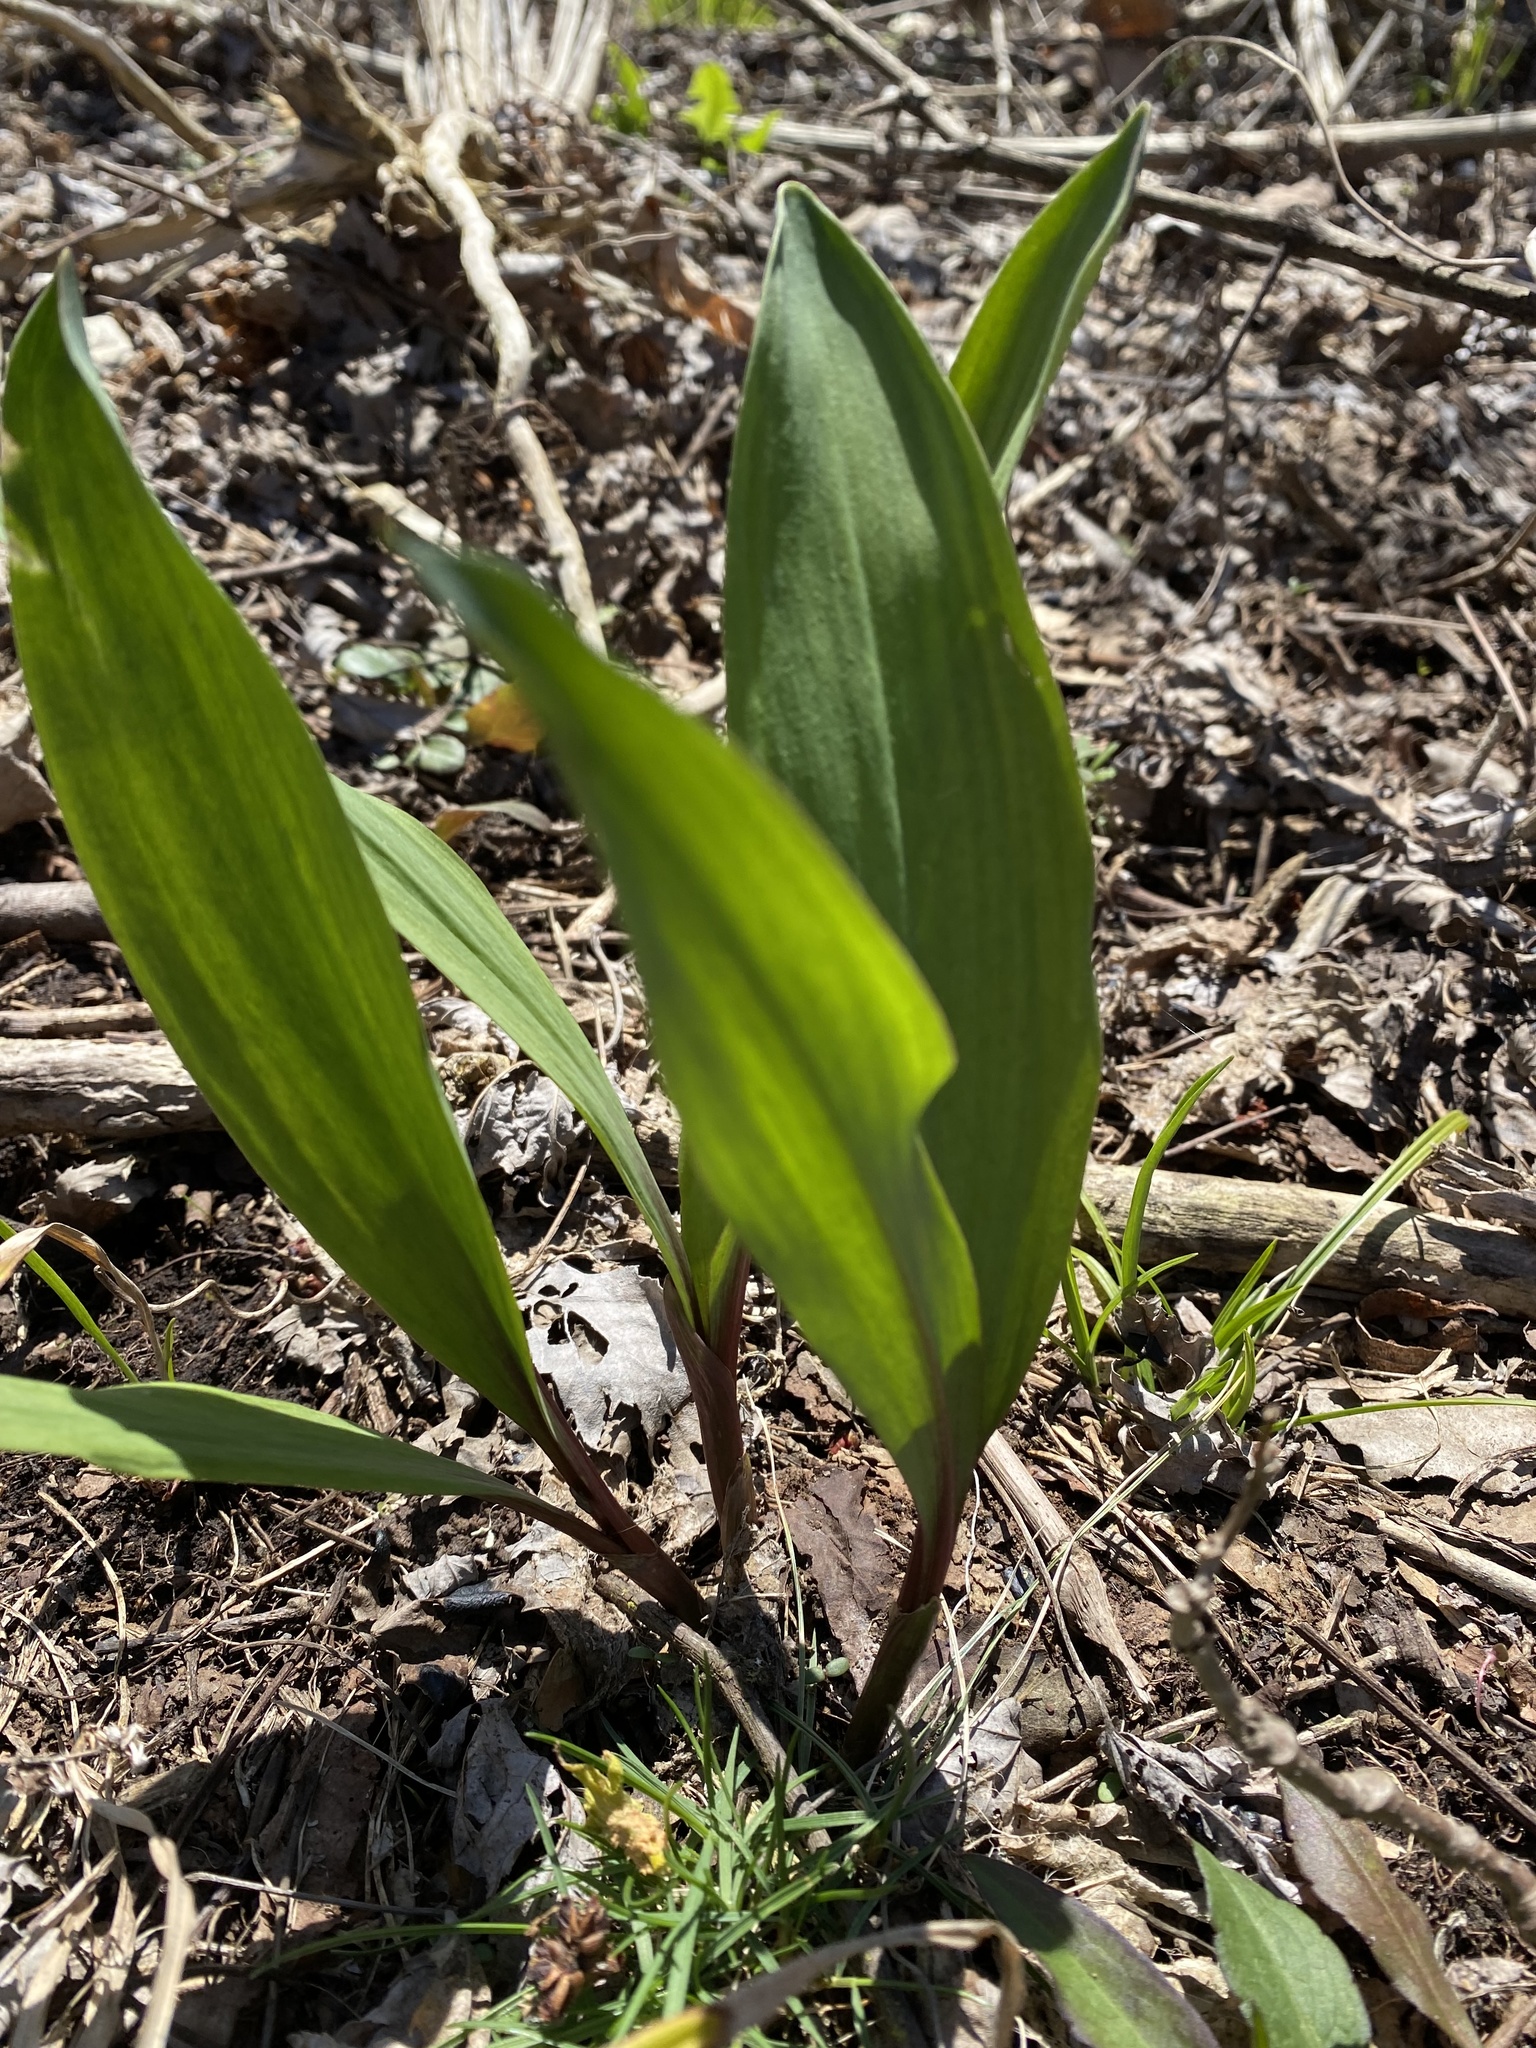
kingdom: Plantae
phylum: Tracheophyta
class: Liliopsida
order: Asparagales
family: Amaryllidaceae
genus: Allium
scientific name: Allium tricoccum
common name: Ramp
